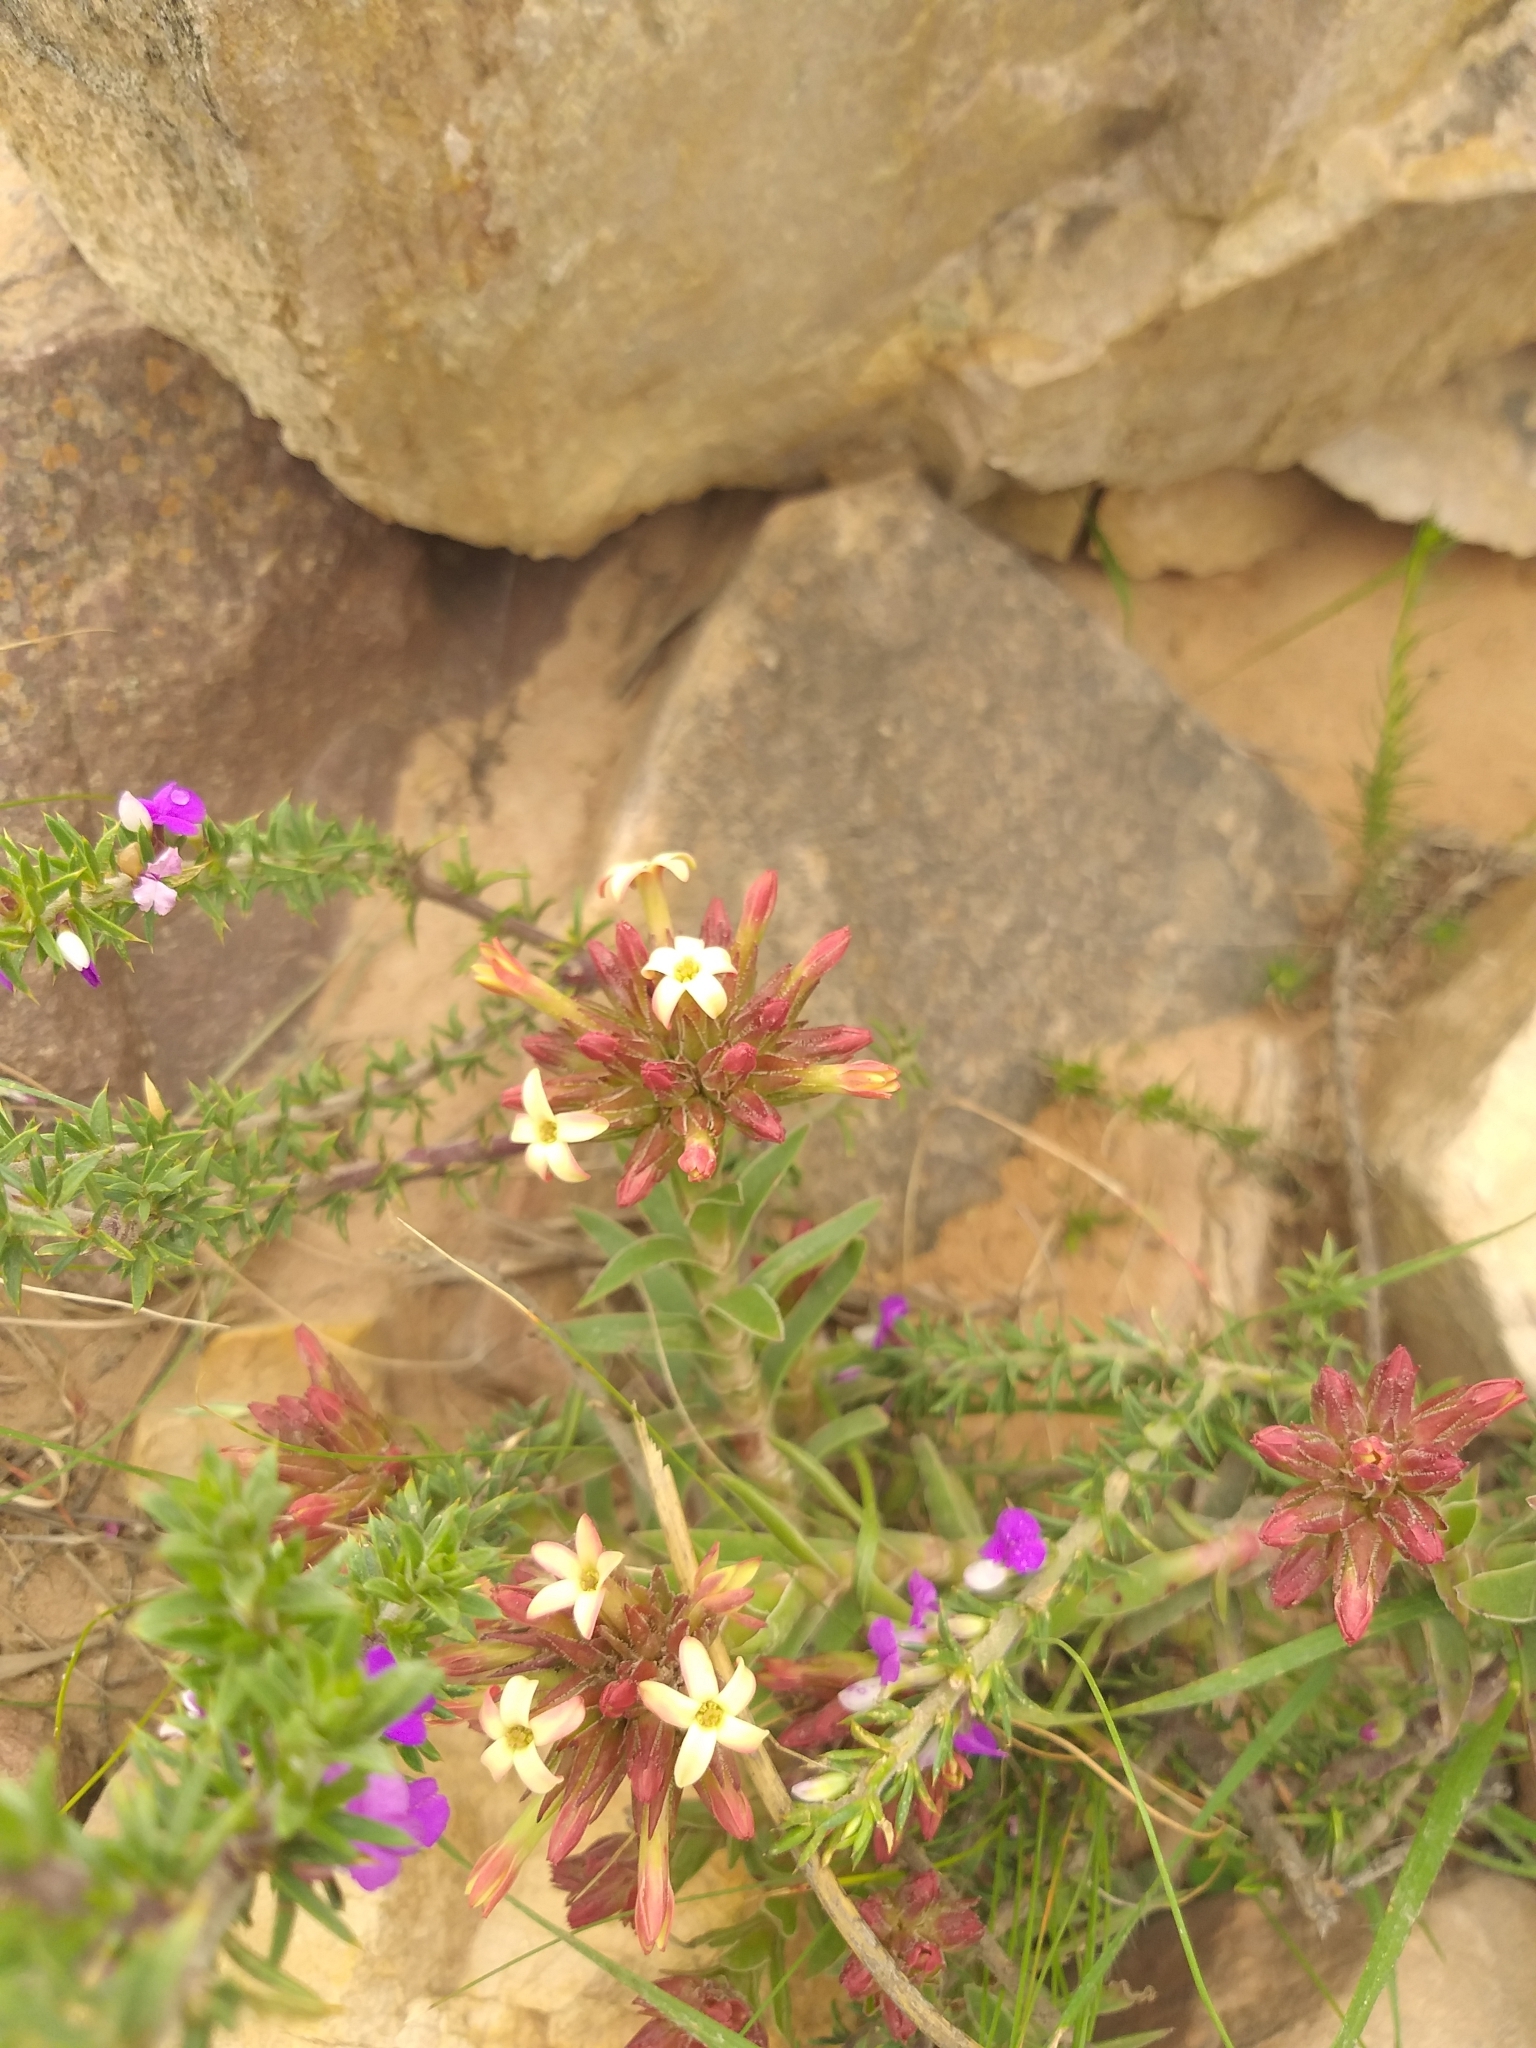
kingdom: Plantae
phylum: Tracheophyta
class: Magnoliopsida
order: Saxifragales
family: Crassulaceae
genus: Crassula
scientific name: Crassula fascicularis
